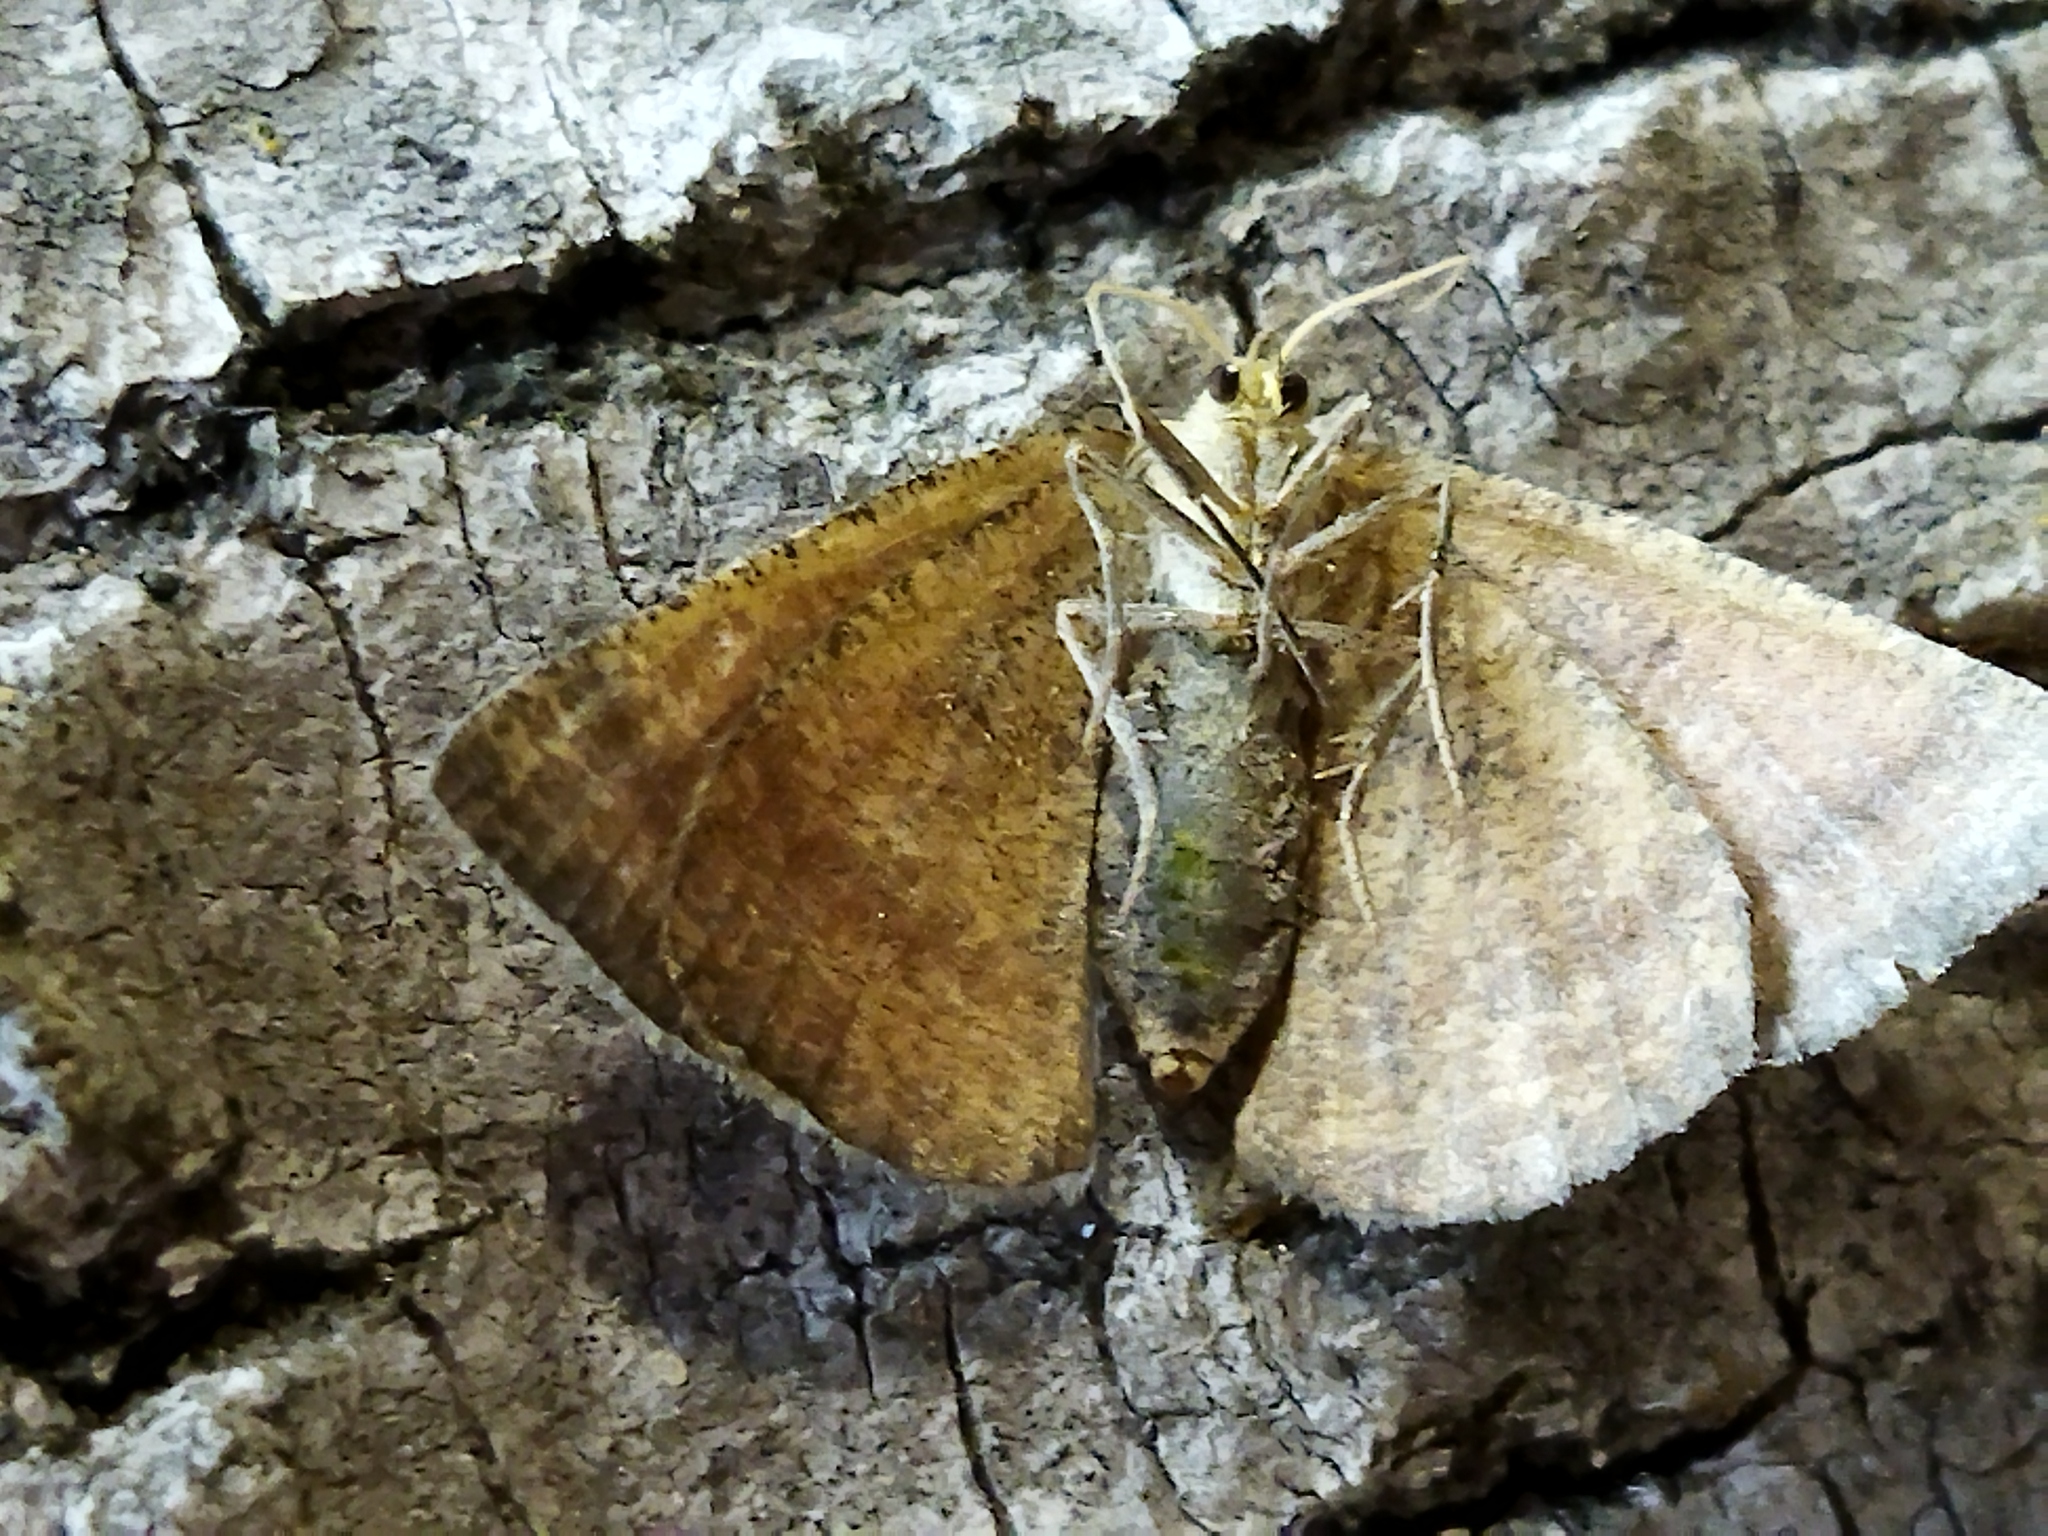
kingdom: Animalia
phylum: Arthropoda
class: Insecta
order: Lepidoptera
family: Geometridae
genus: Aplasta
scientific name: Aplasta ononaria
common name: Rest harrow
